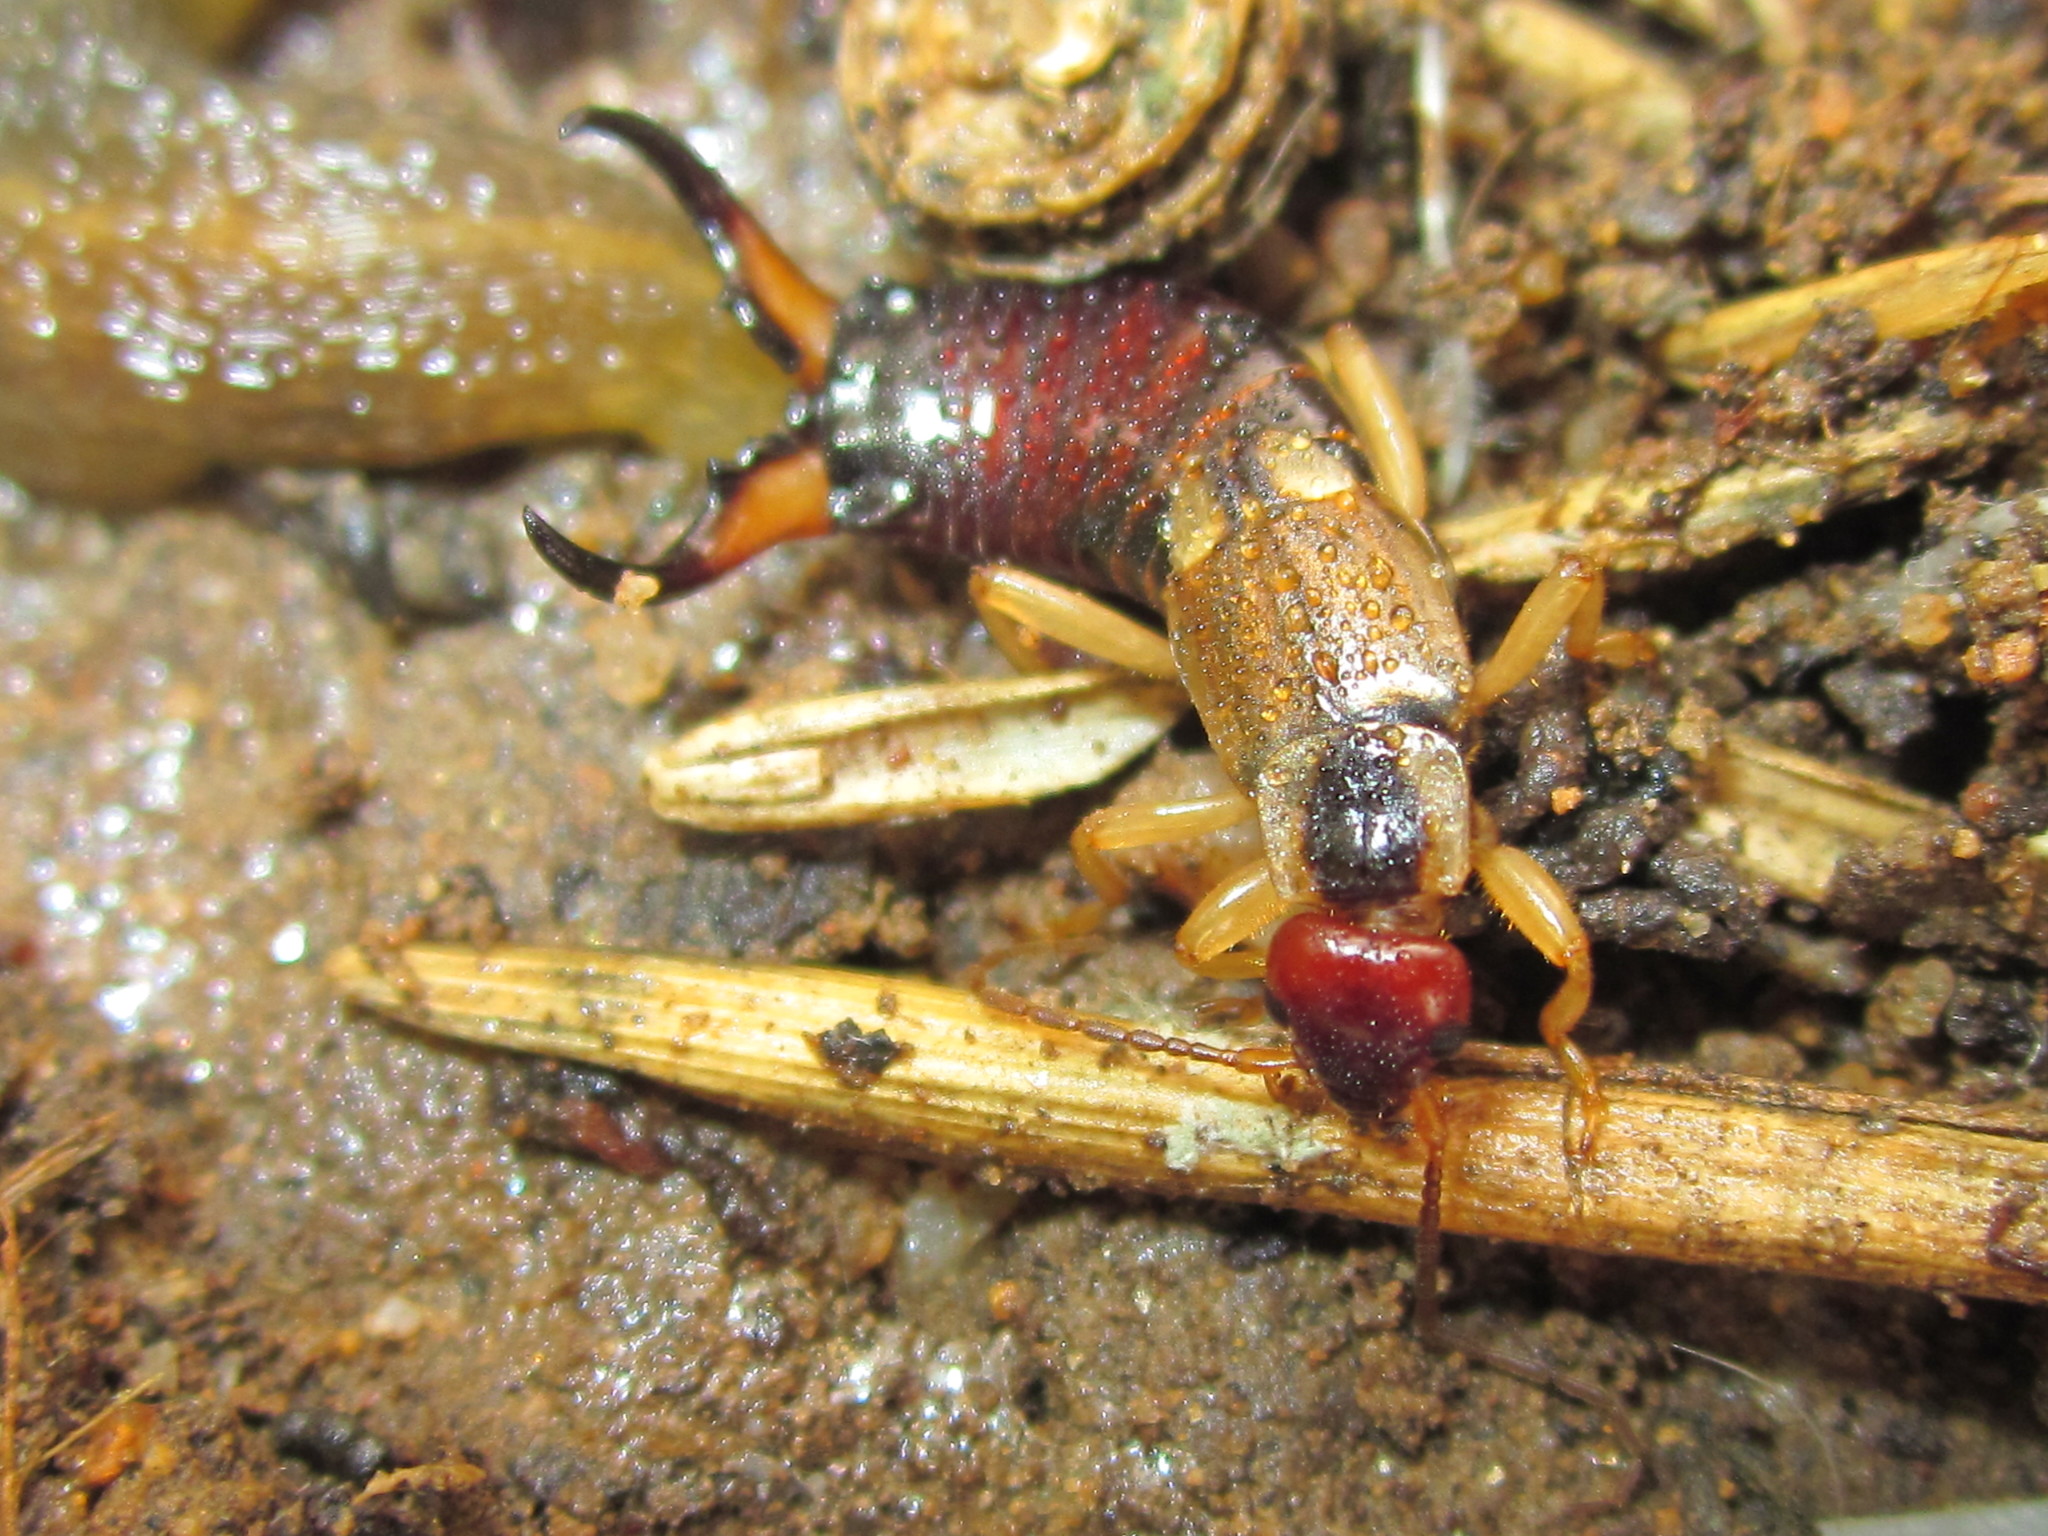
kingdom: Animalia
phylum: Arthropoda
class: Insecta
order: Dermaptera
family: Forficulidae
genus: Forficula
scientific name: Forficula
